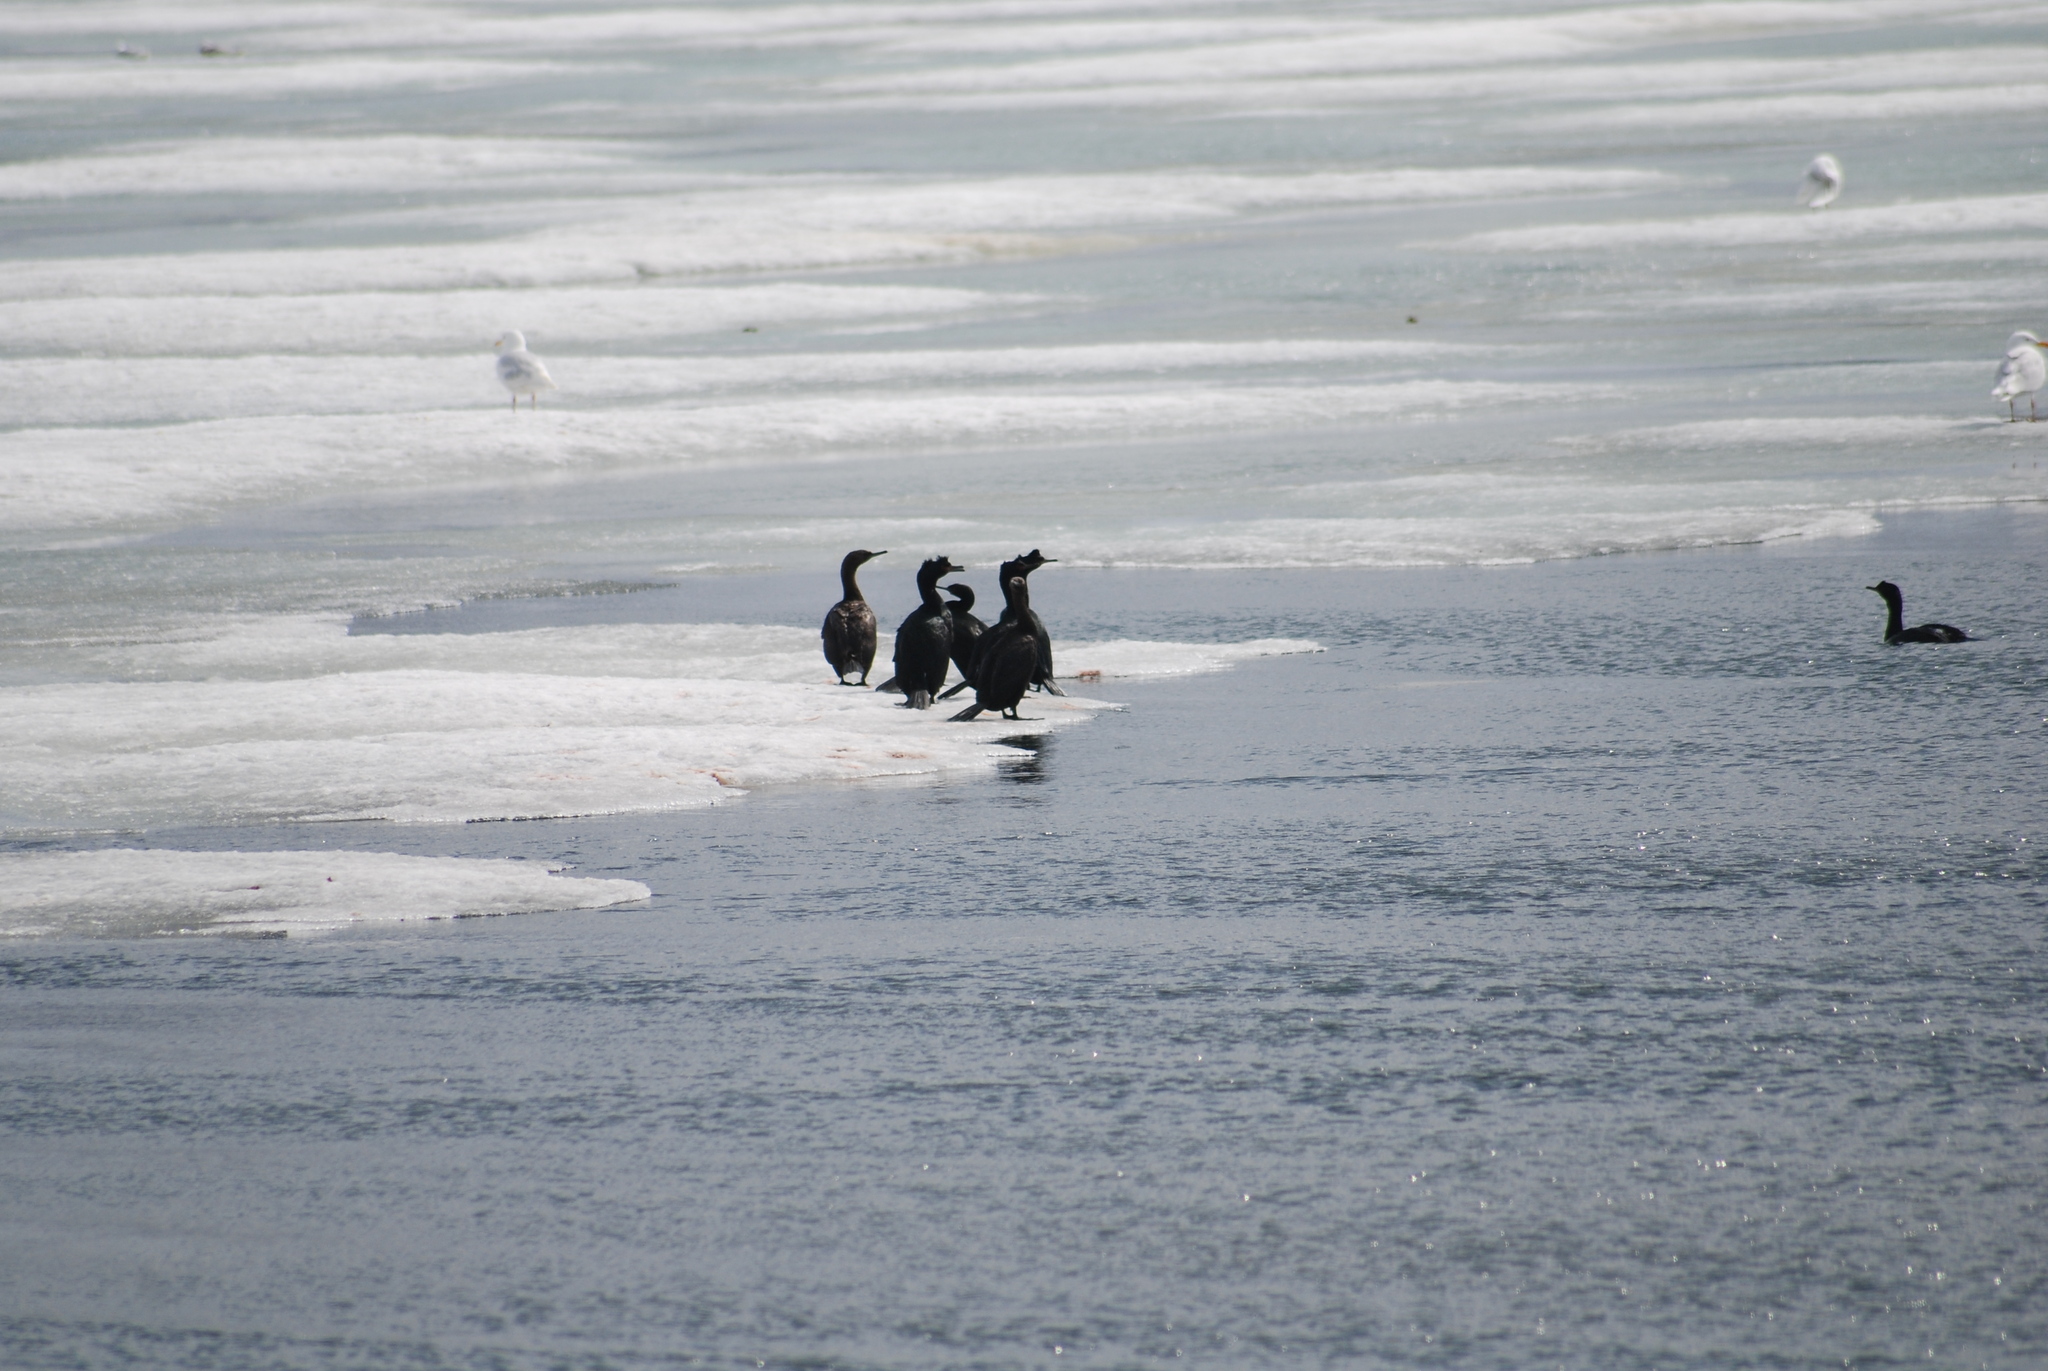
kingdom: Animalia
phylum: Chordata
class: Aves
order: Suliformes
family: Phalacrocoracidae
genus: Phalacrocorax
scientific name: Phalacrocorax pelagicus
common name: Pelagic cormorant
